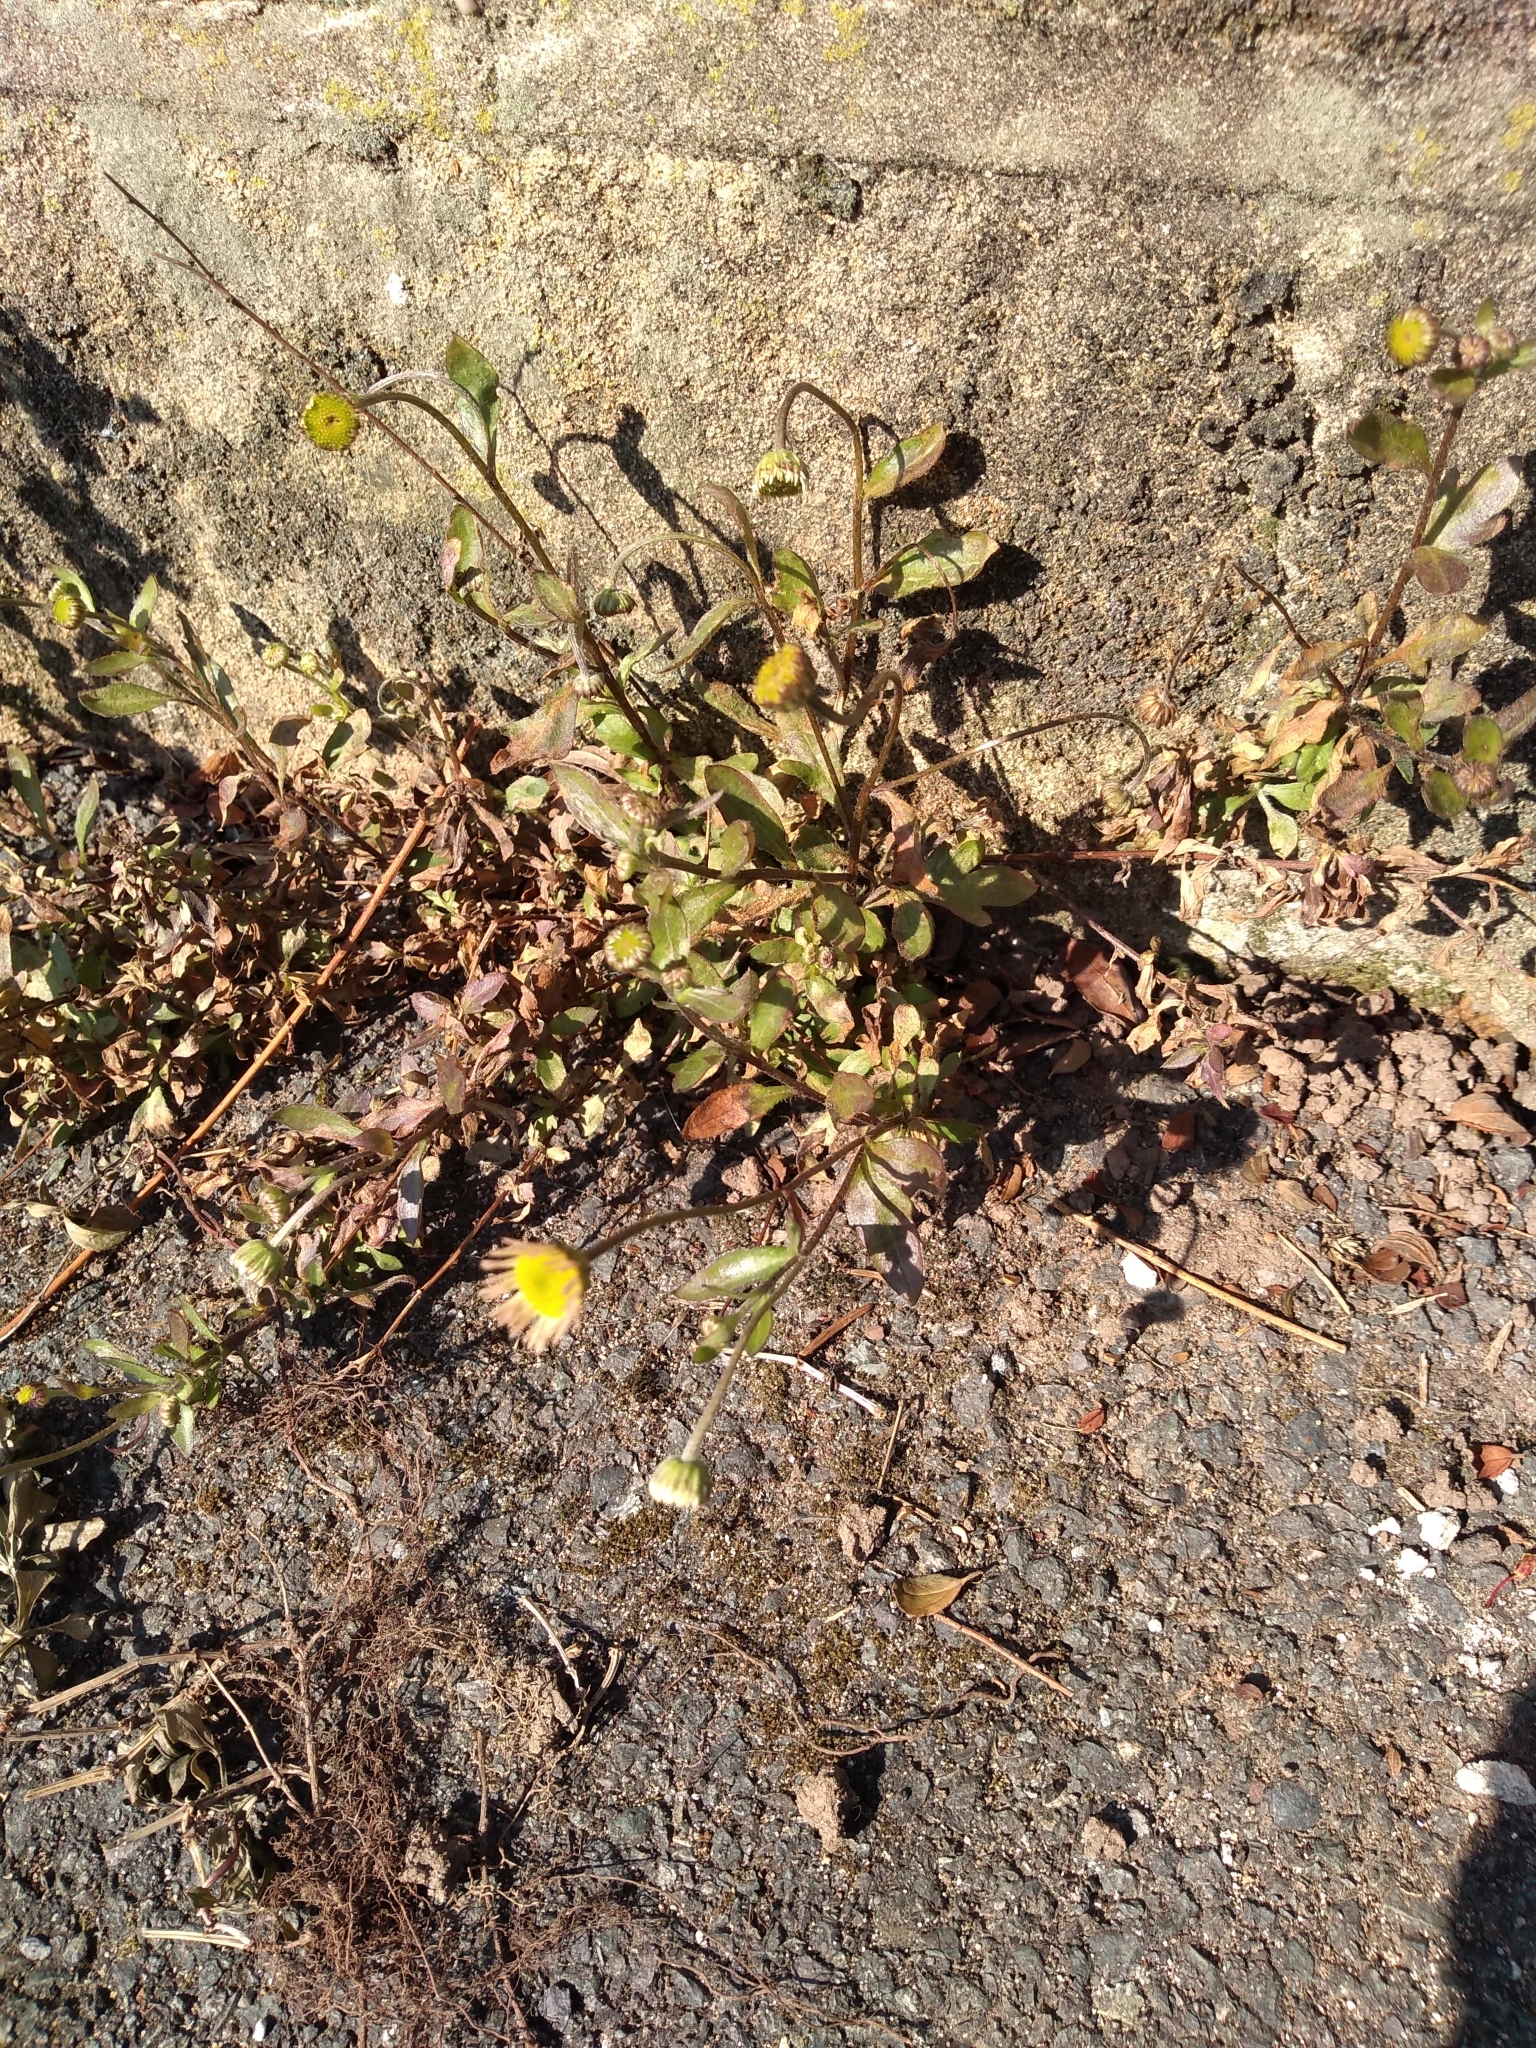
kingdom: Plantae
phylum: Tracheophyta
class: Magnoliopsida
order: Asterales
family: Asteraceae
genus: Erigeron
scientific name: Erigeron karvinskianus
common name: Mexican fleabane
